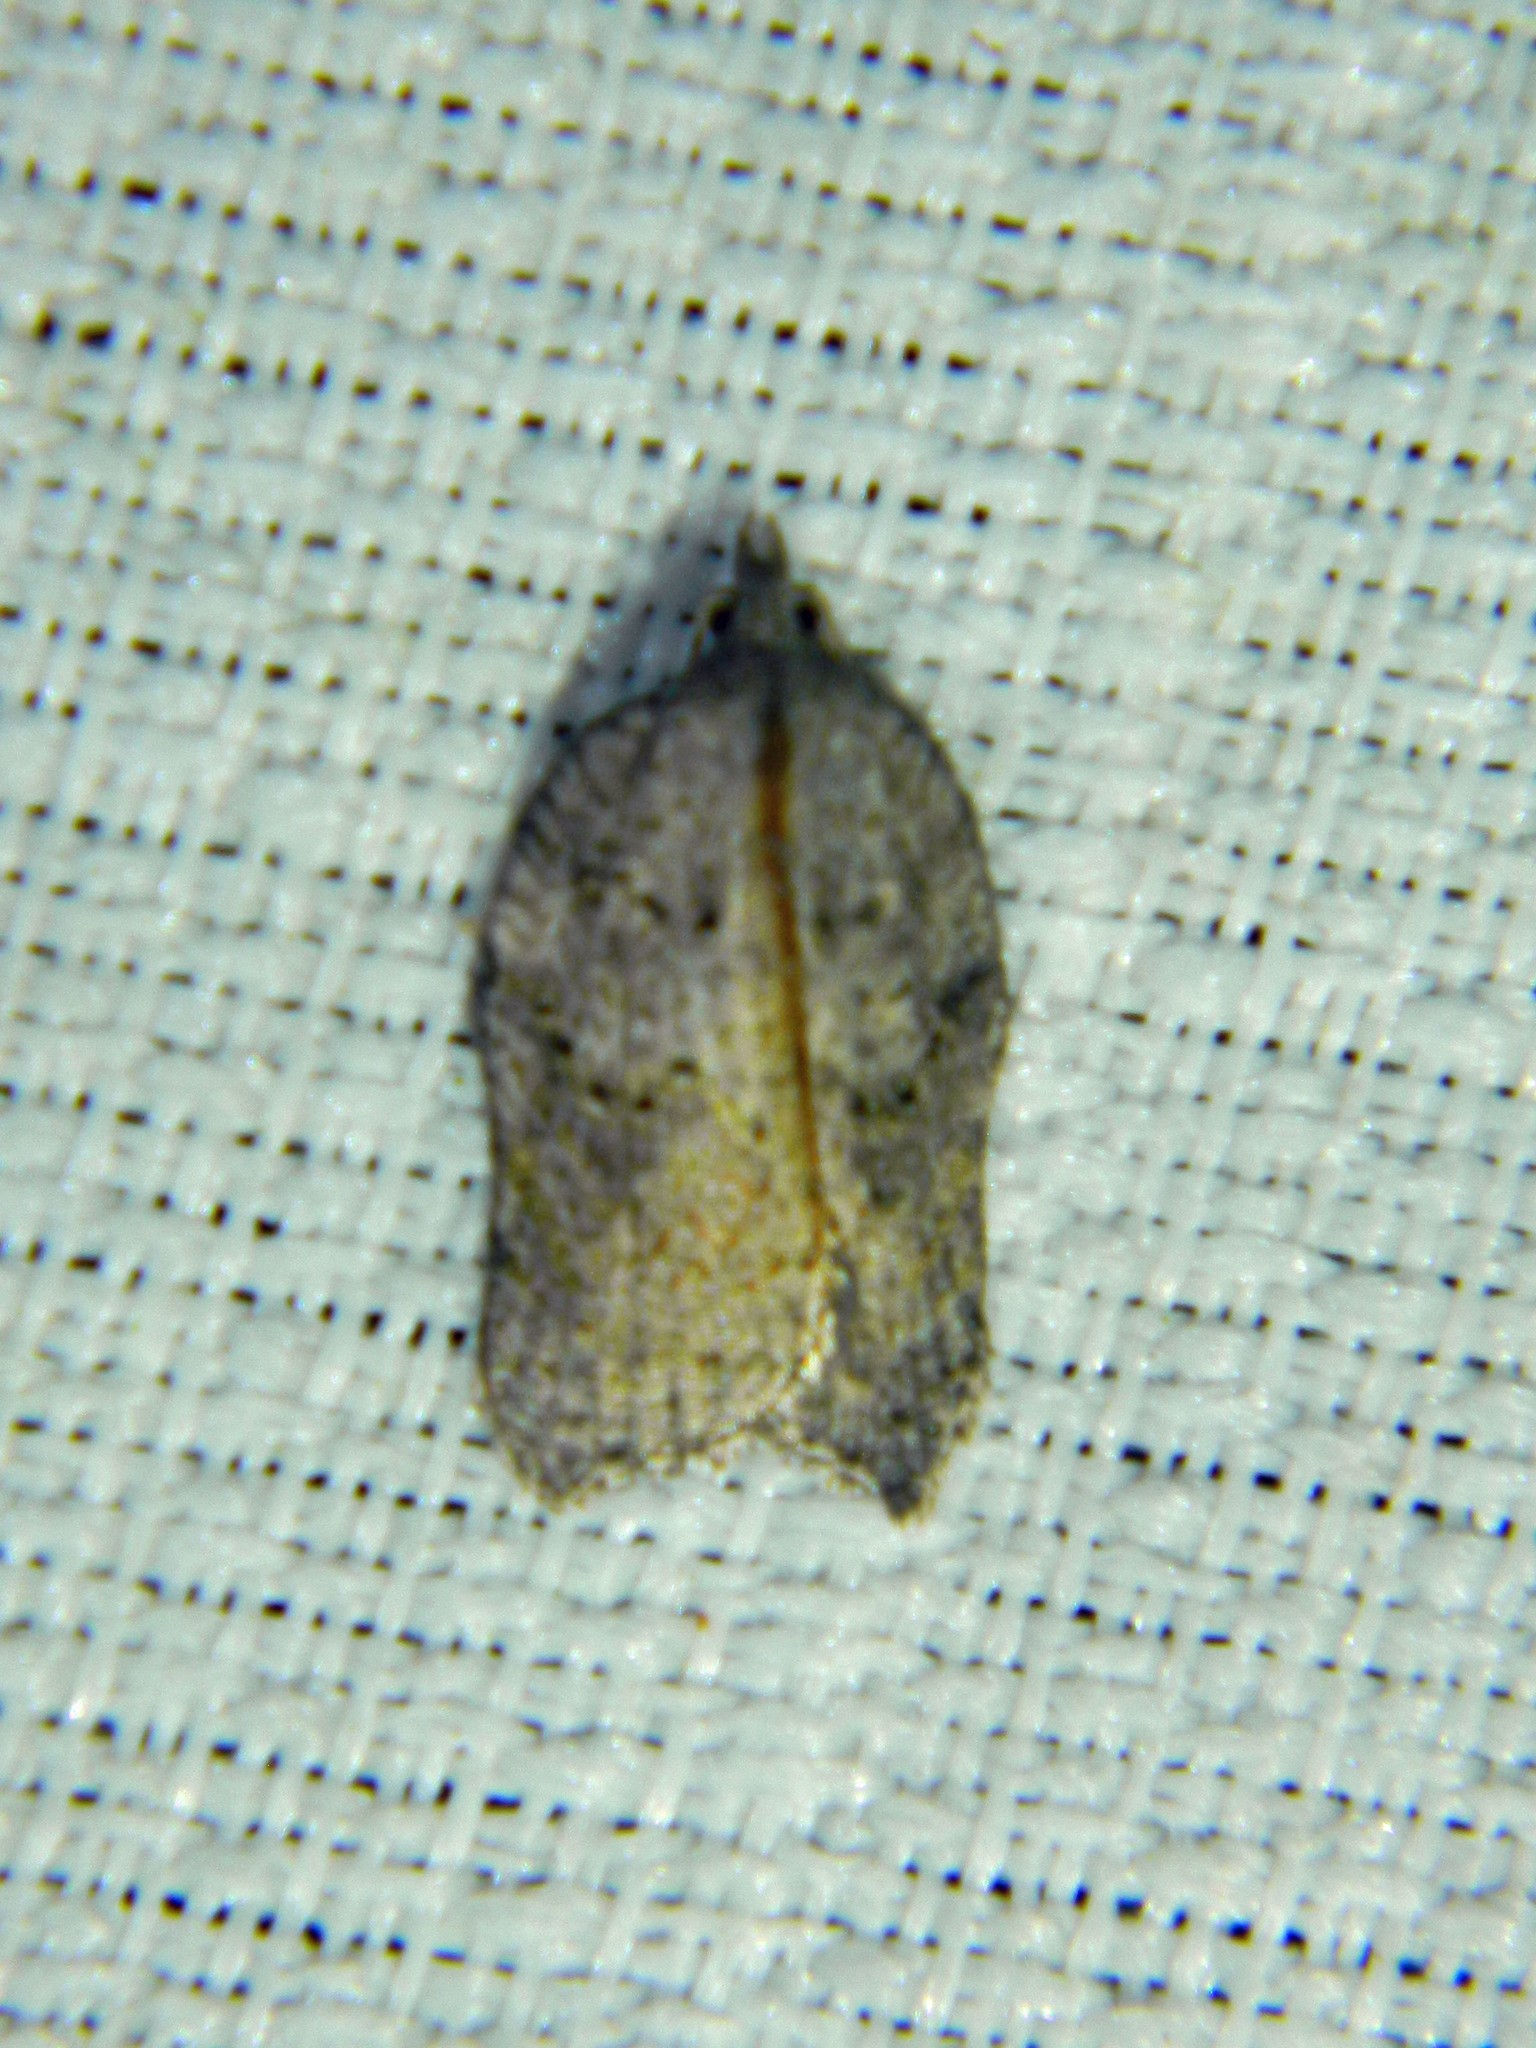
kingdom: Animalia
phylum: Arthropoda
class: Insecta
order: Lepidoptera
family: Tortricidae
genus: Acleris
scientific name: Acleris effractana
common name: Hook-winged tortrix moth
